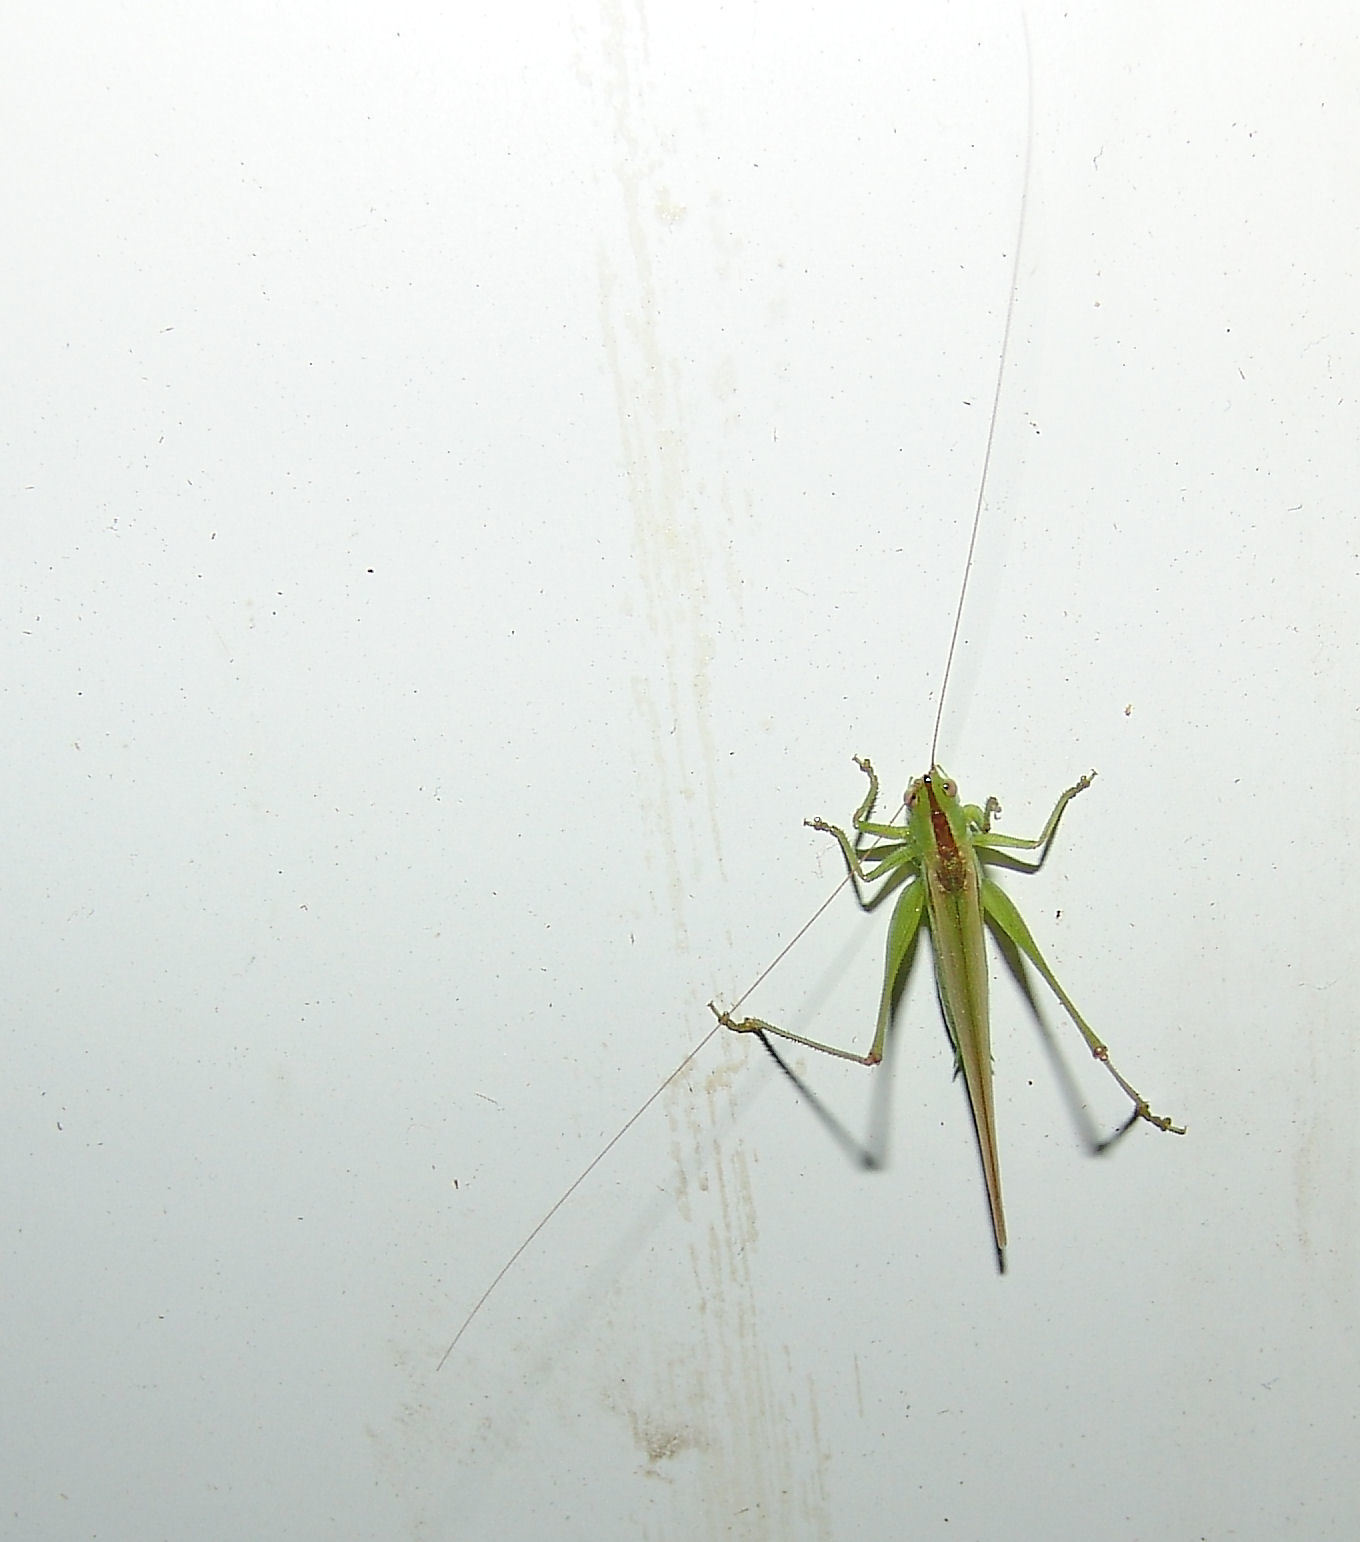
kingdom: Animalia
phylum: Arthropoda
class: Insecta
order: Orthoptera
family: Tettigoniidae
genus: Conocephalus
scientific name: Conocephalus fasciatus
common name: Slender meadow katydid
